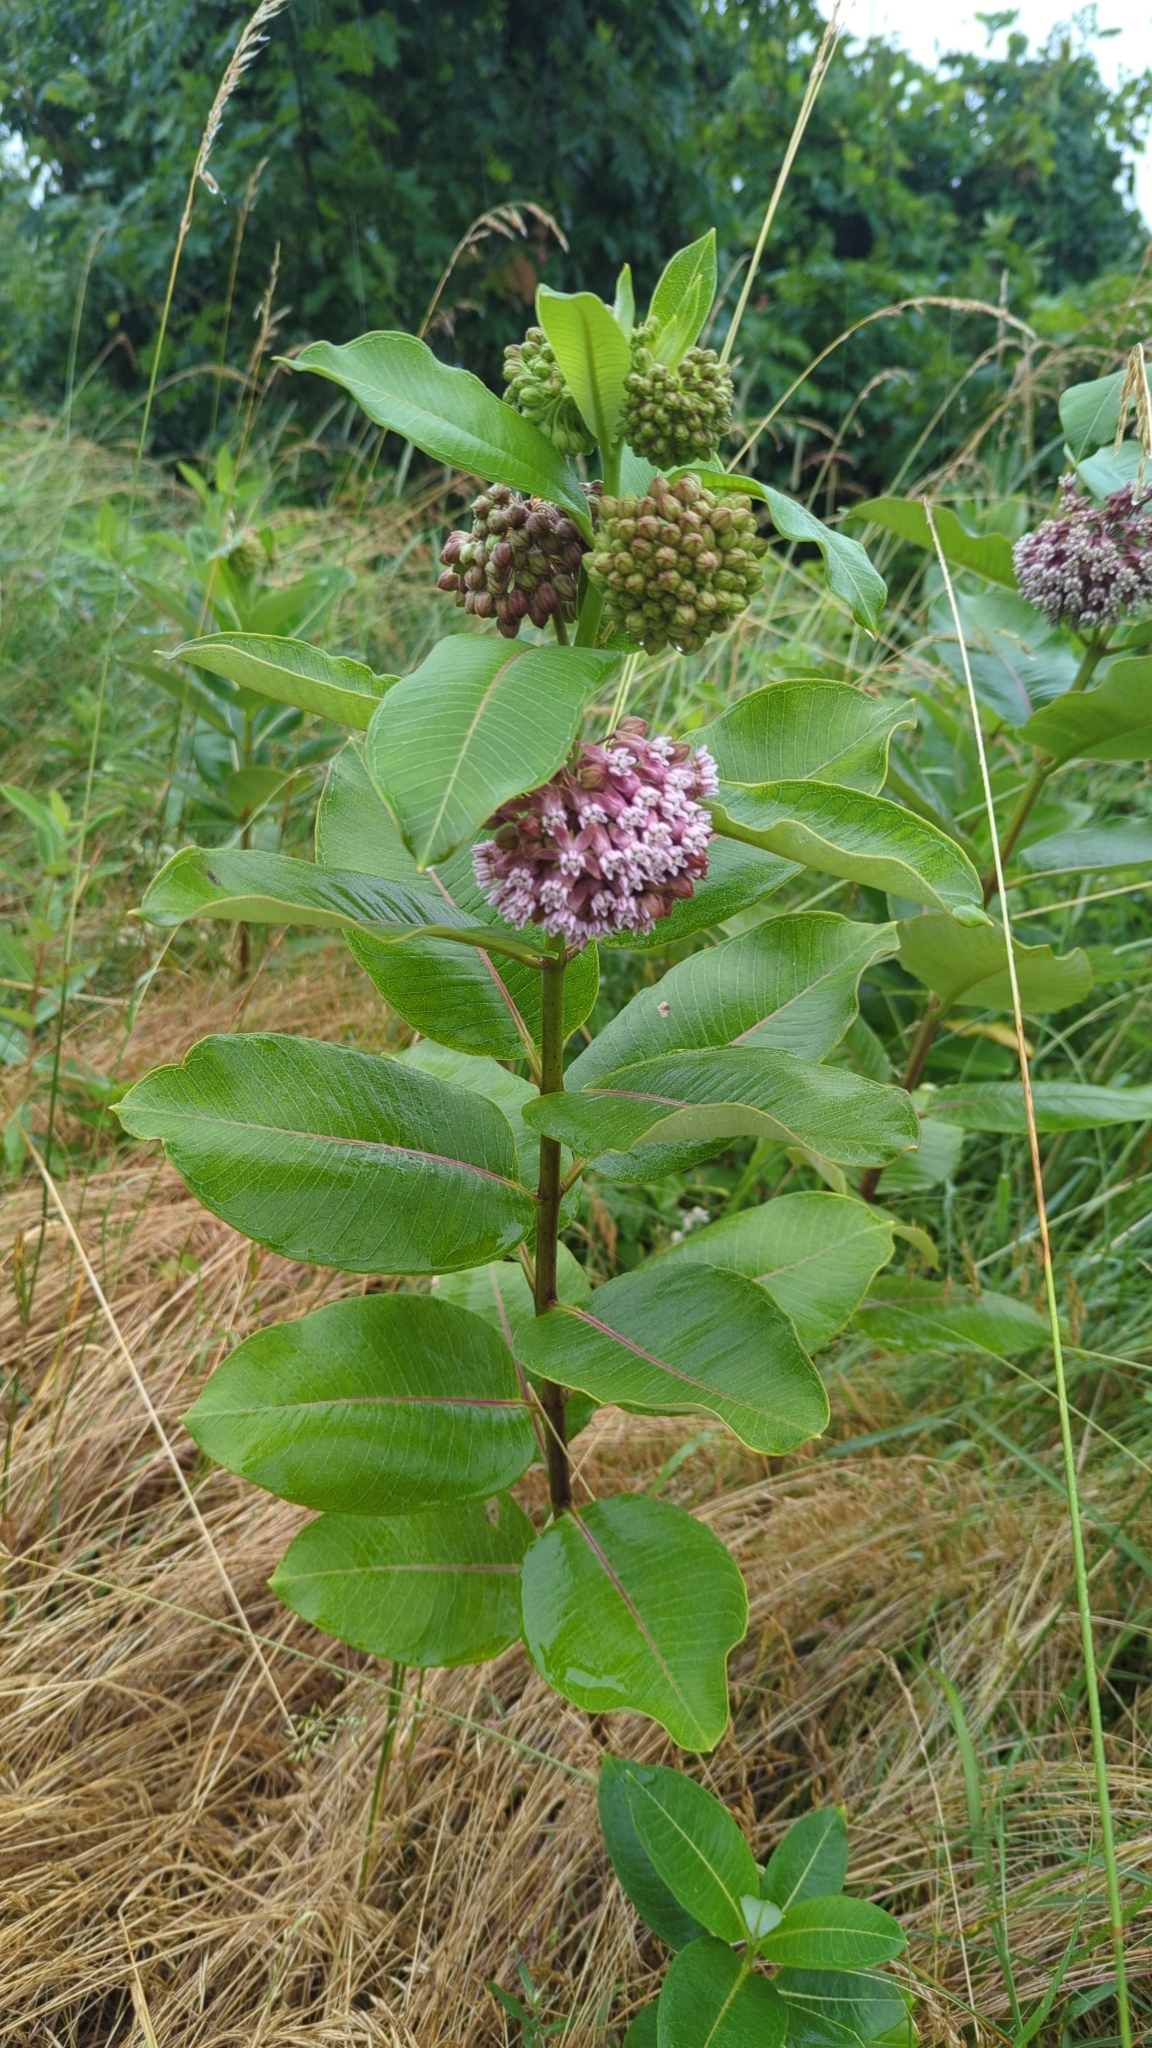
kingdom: Plantae
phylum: Tracheophyta
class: Magnoliopsida
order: Gentianales
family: Apocynaceae
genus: Asclepias
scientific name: Asclepias syriaca
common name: Common milkweed
